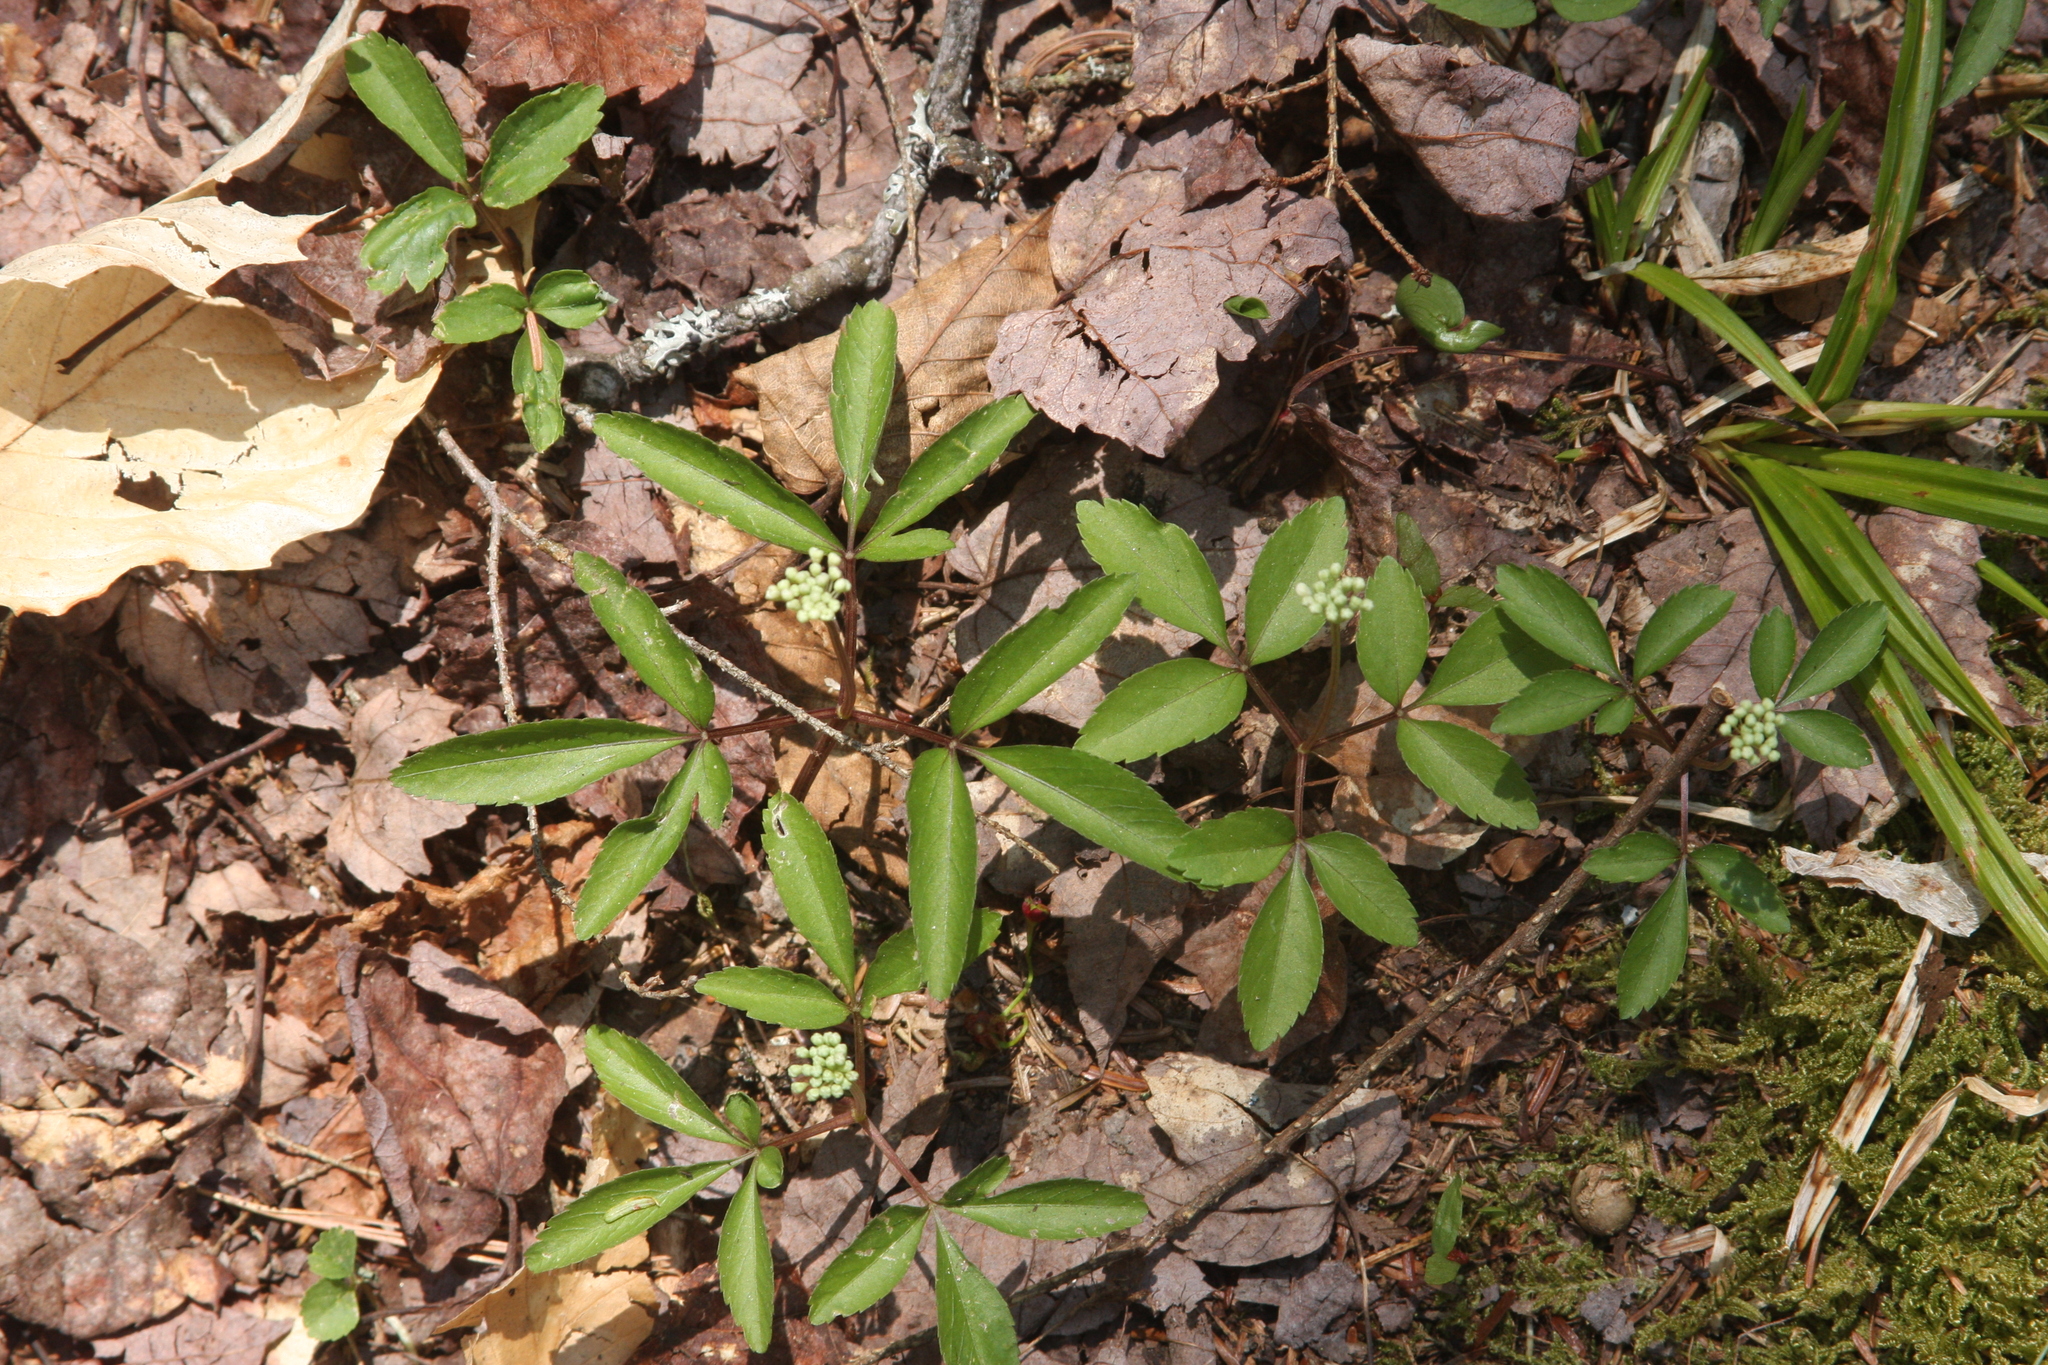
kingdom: Plantae
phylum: Tracheophyta
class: Magnoliopsida
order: Apiales
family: Araliaceae
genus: Panax
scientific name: Panax trifolius
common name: Dwarf ginseng
